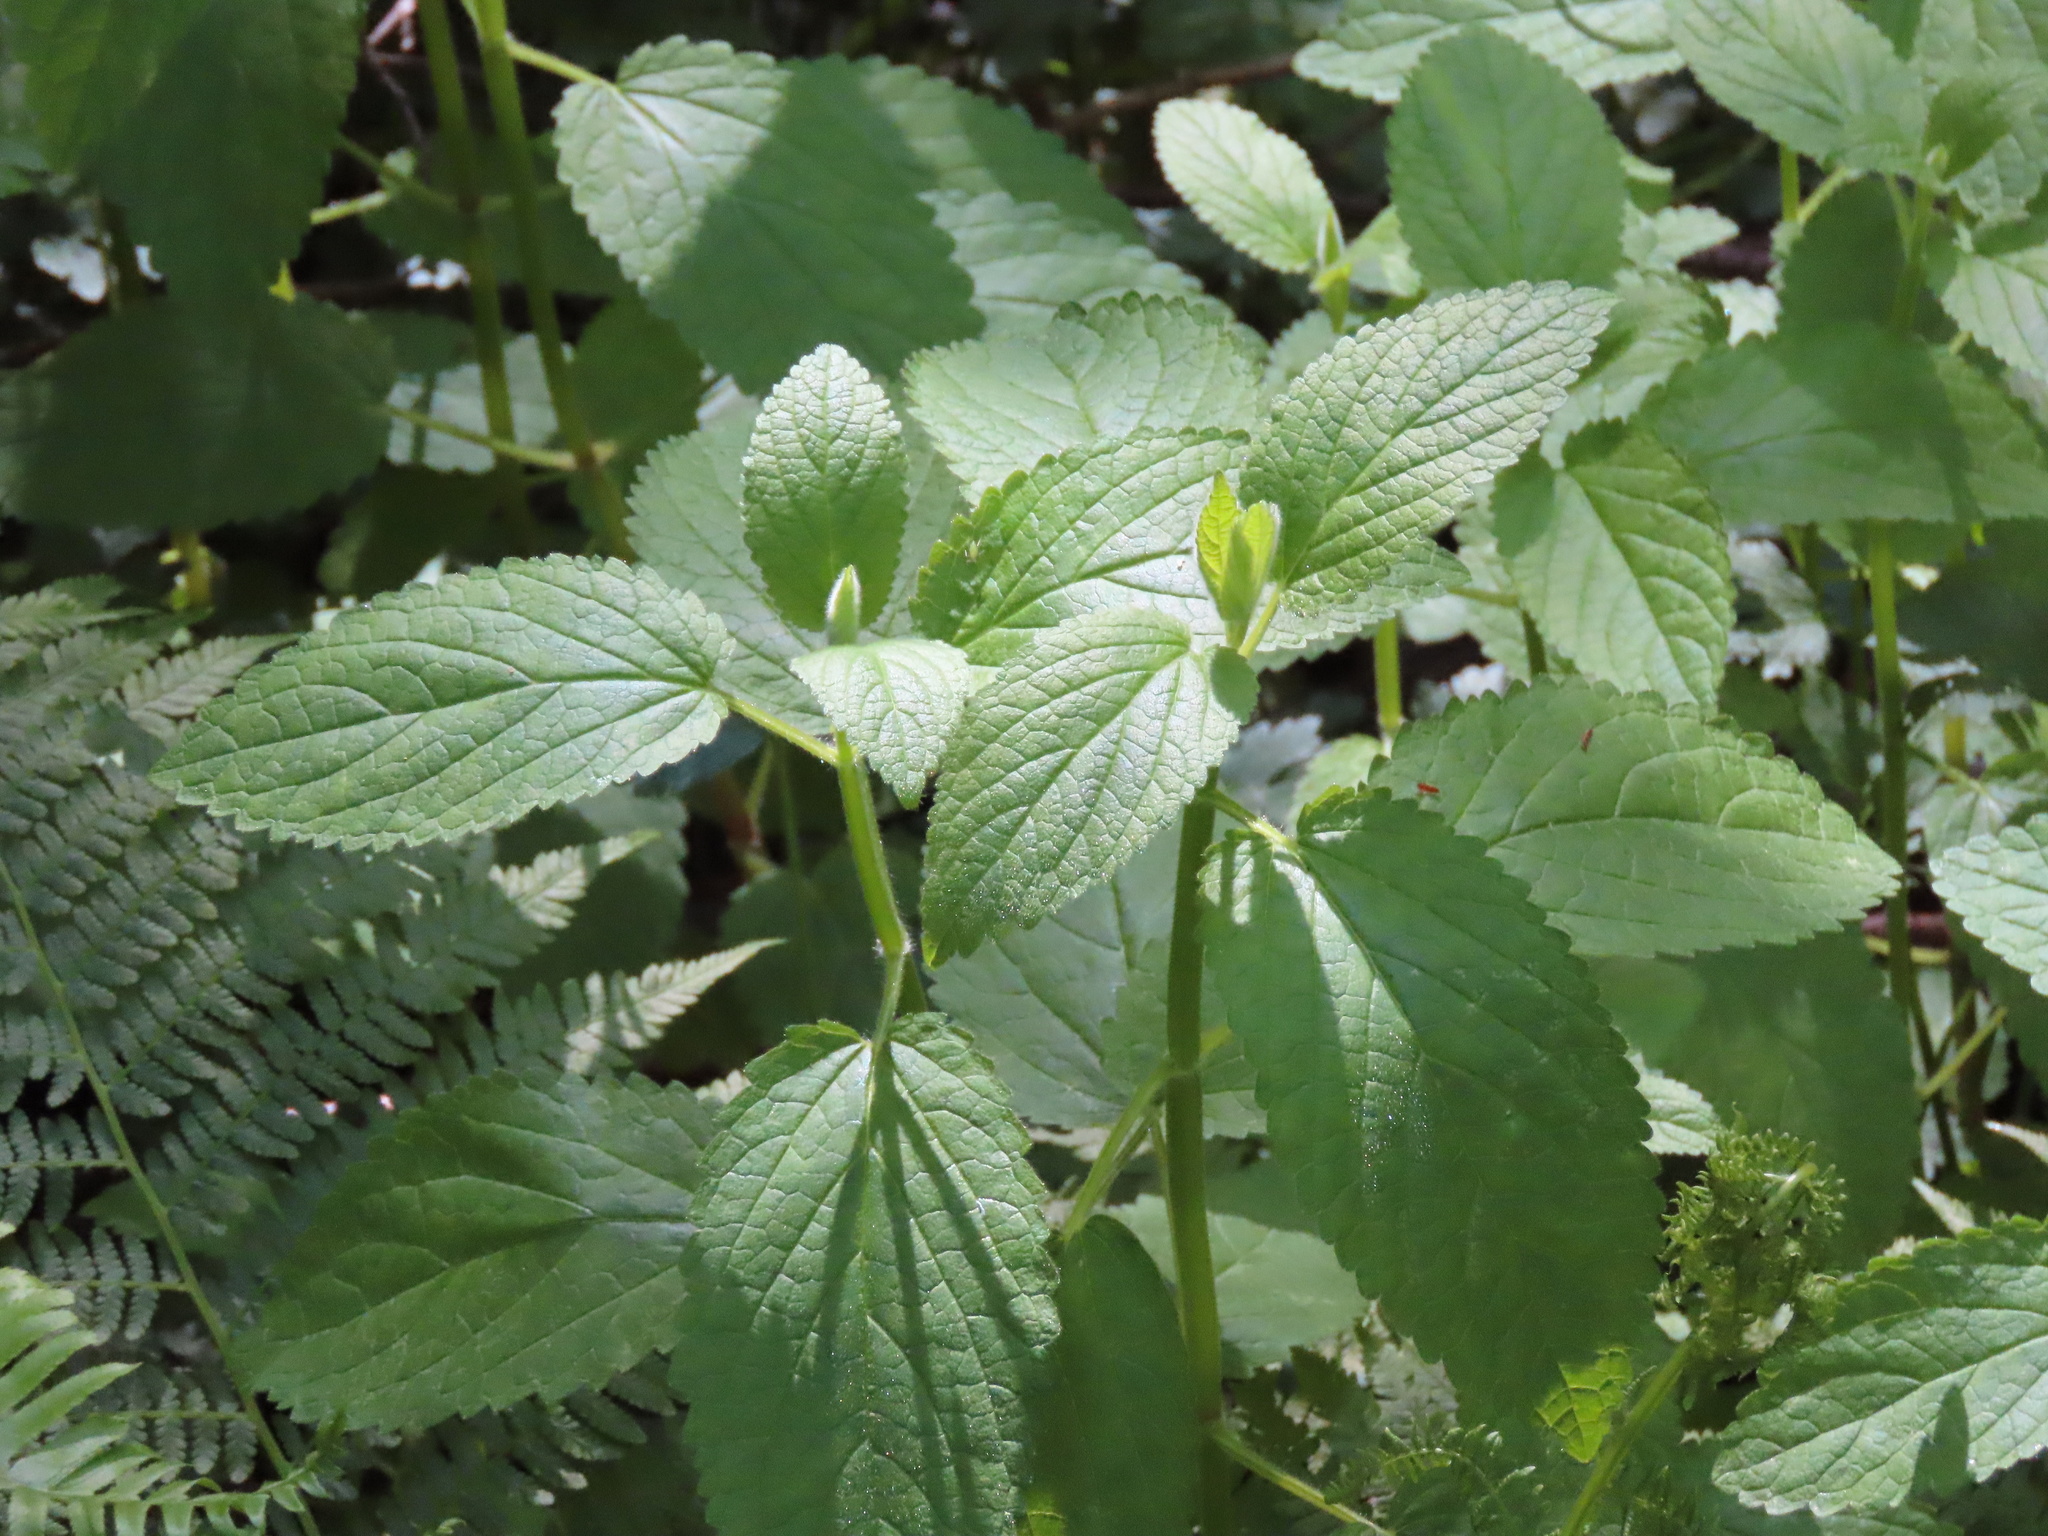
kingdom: Plantae
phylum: Tracheophyta
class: Magnoliopsida
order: Lamiales
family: Lamiaceae
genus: Stachys
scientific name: Stachys chamissonis
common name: Coastal hedge-nettle
